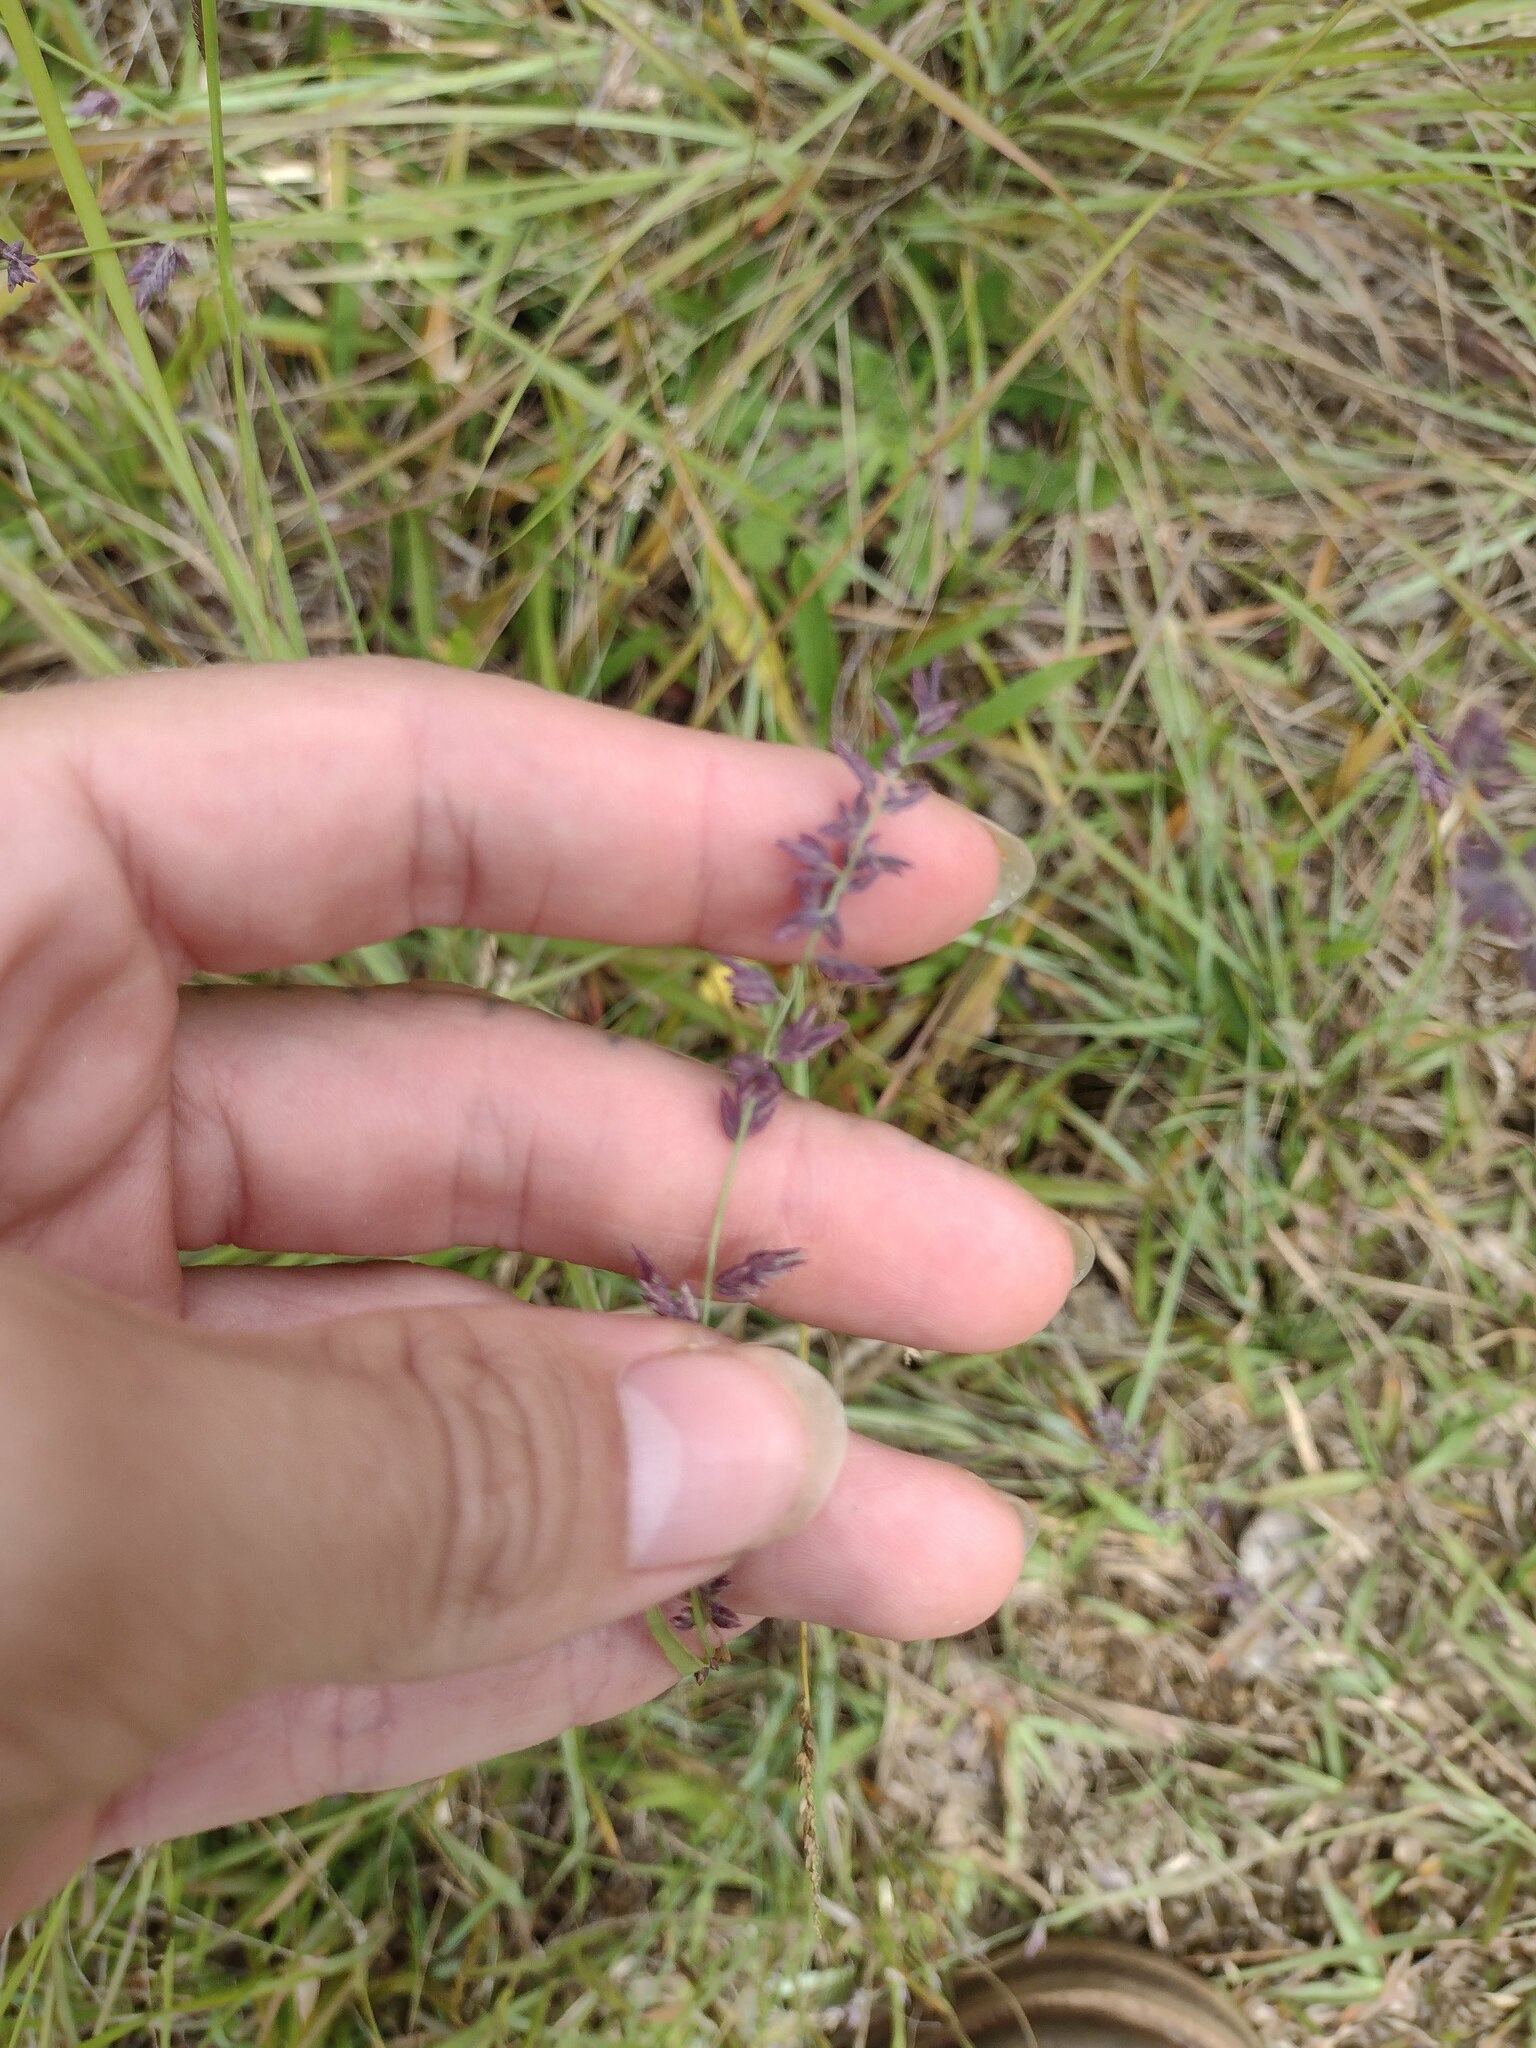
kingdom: Plantae
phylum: Tracheophyta
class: Liliopsida
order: Poales
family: Poaceae
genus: Eragrostis
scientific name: Eragrostis elongata
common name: Long lovegrass
